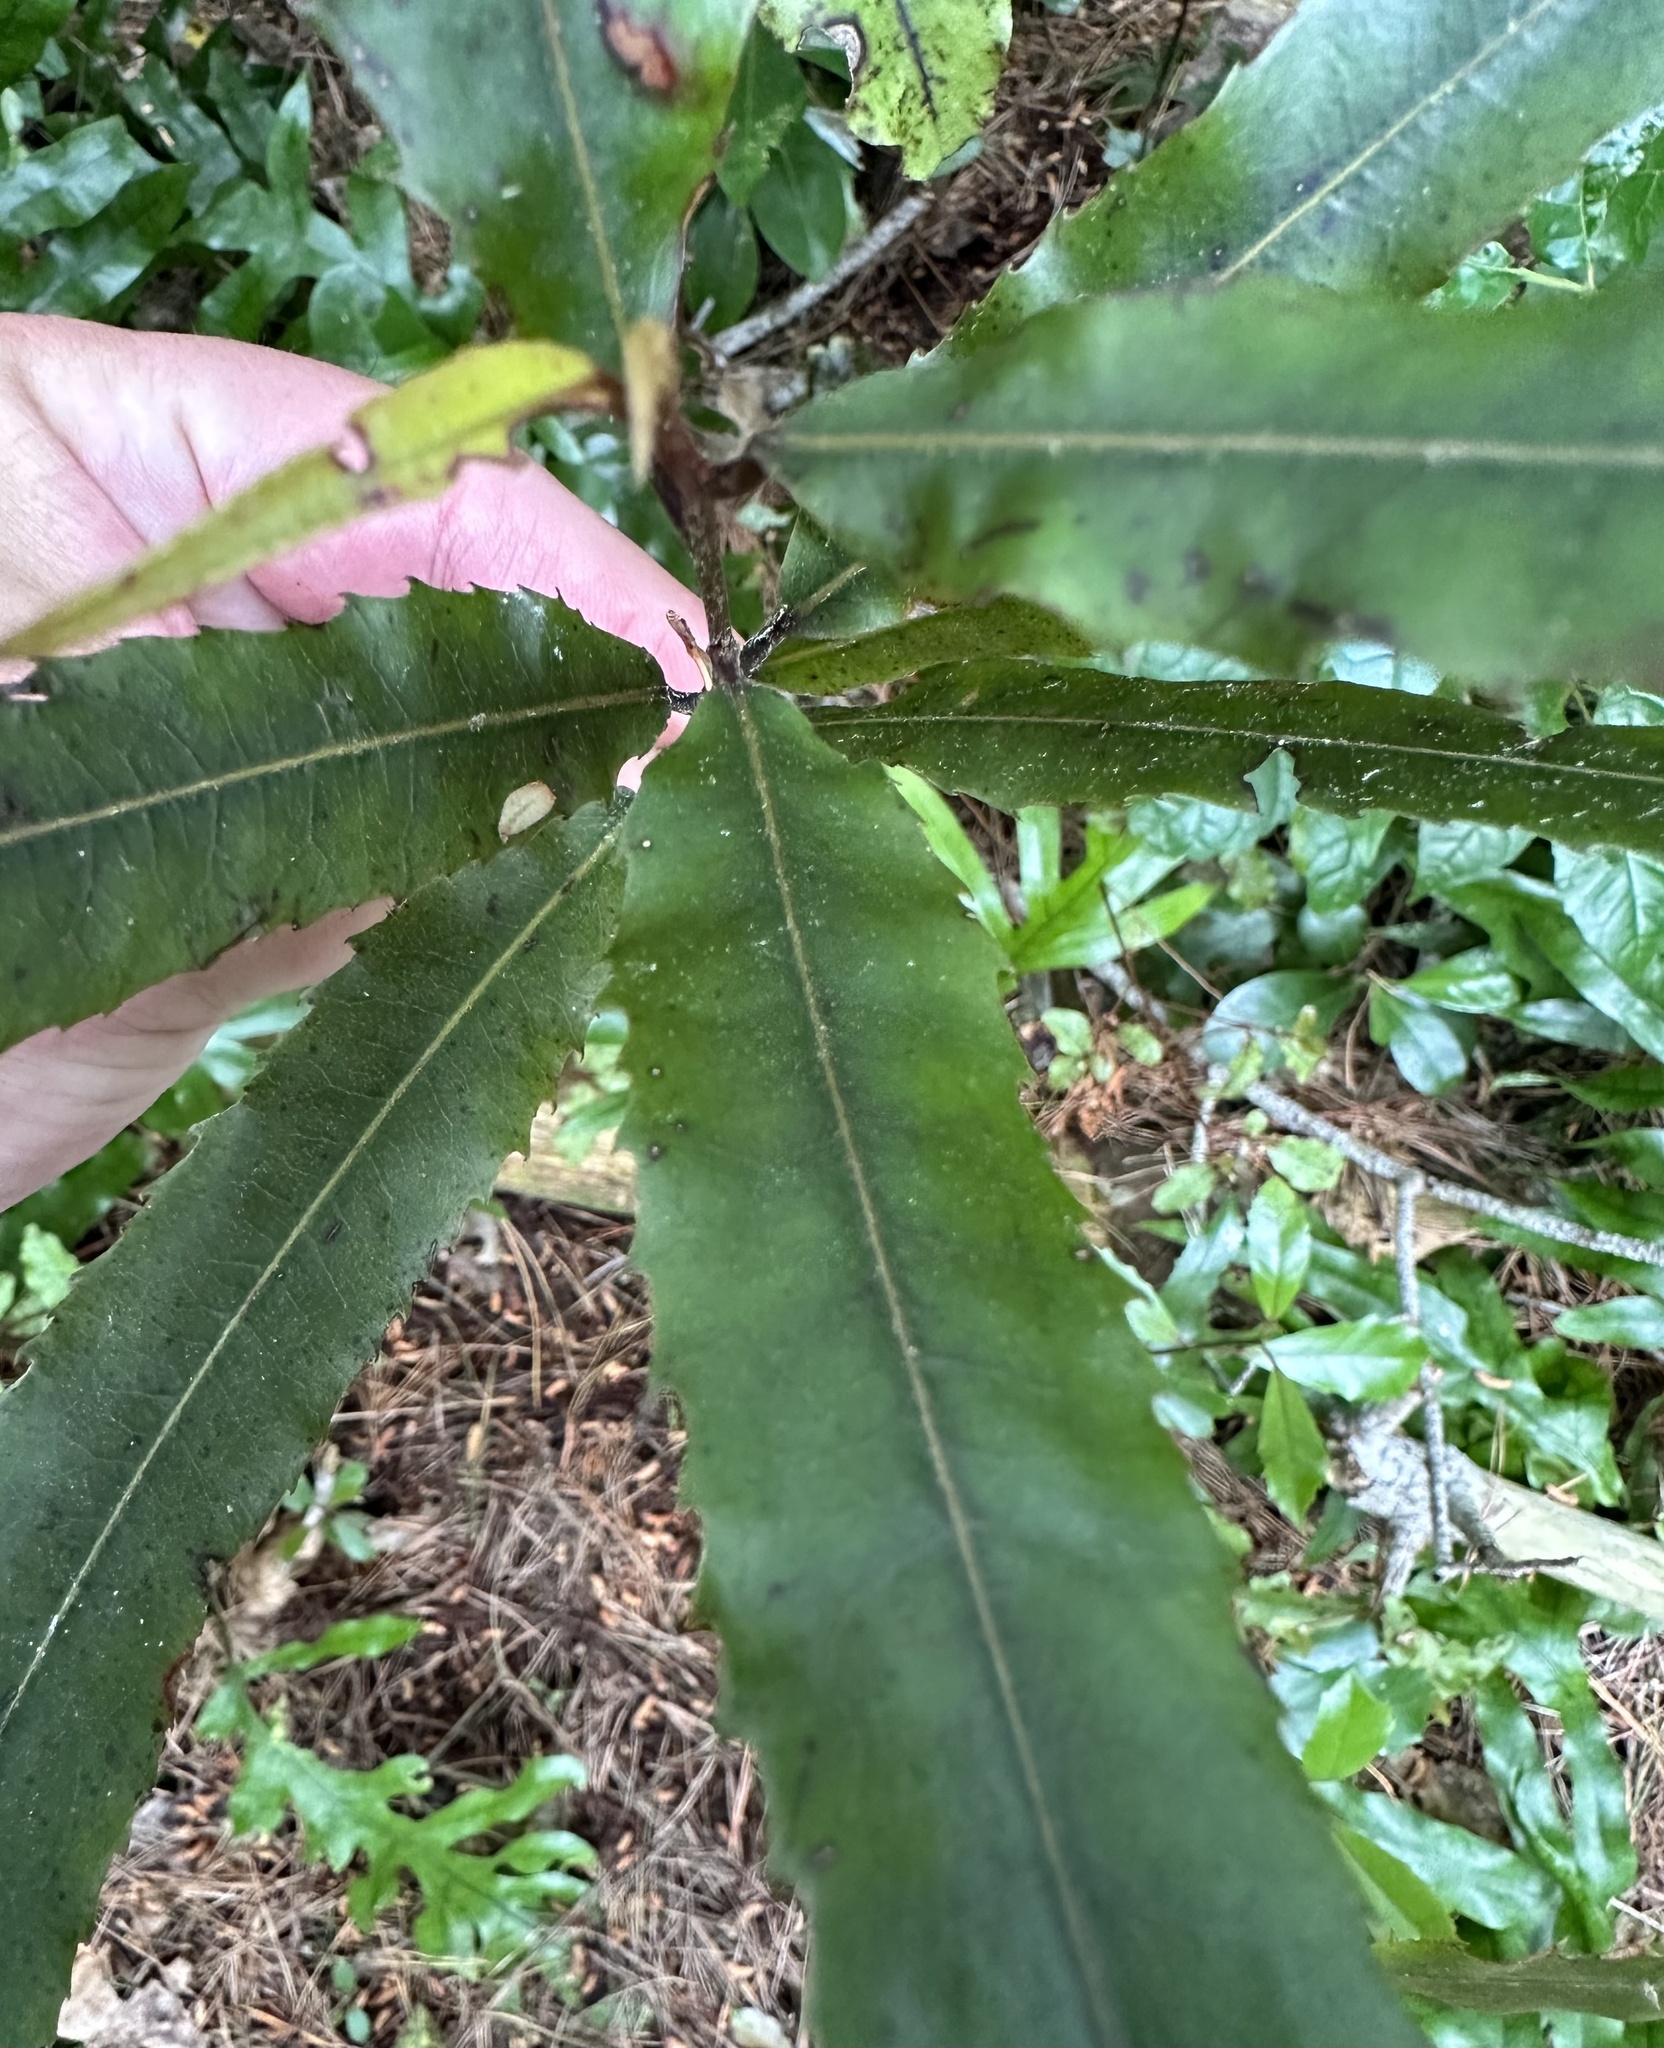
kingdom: Plantae
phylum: Tracheophyta
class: Magnoliopsida
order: Oxalidales
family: Elaeocarpaceae
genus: Elaeocarpus
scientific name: Elaeocarpus dentatus
